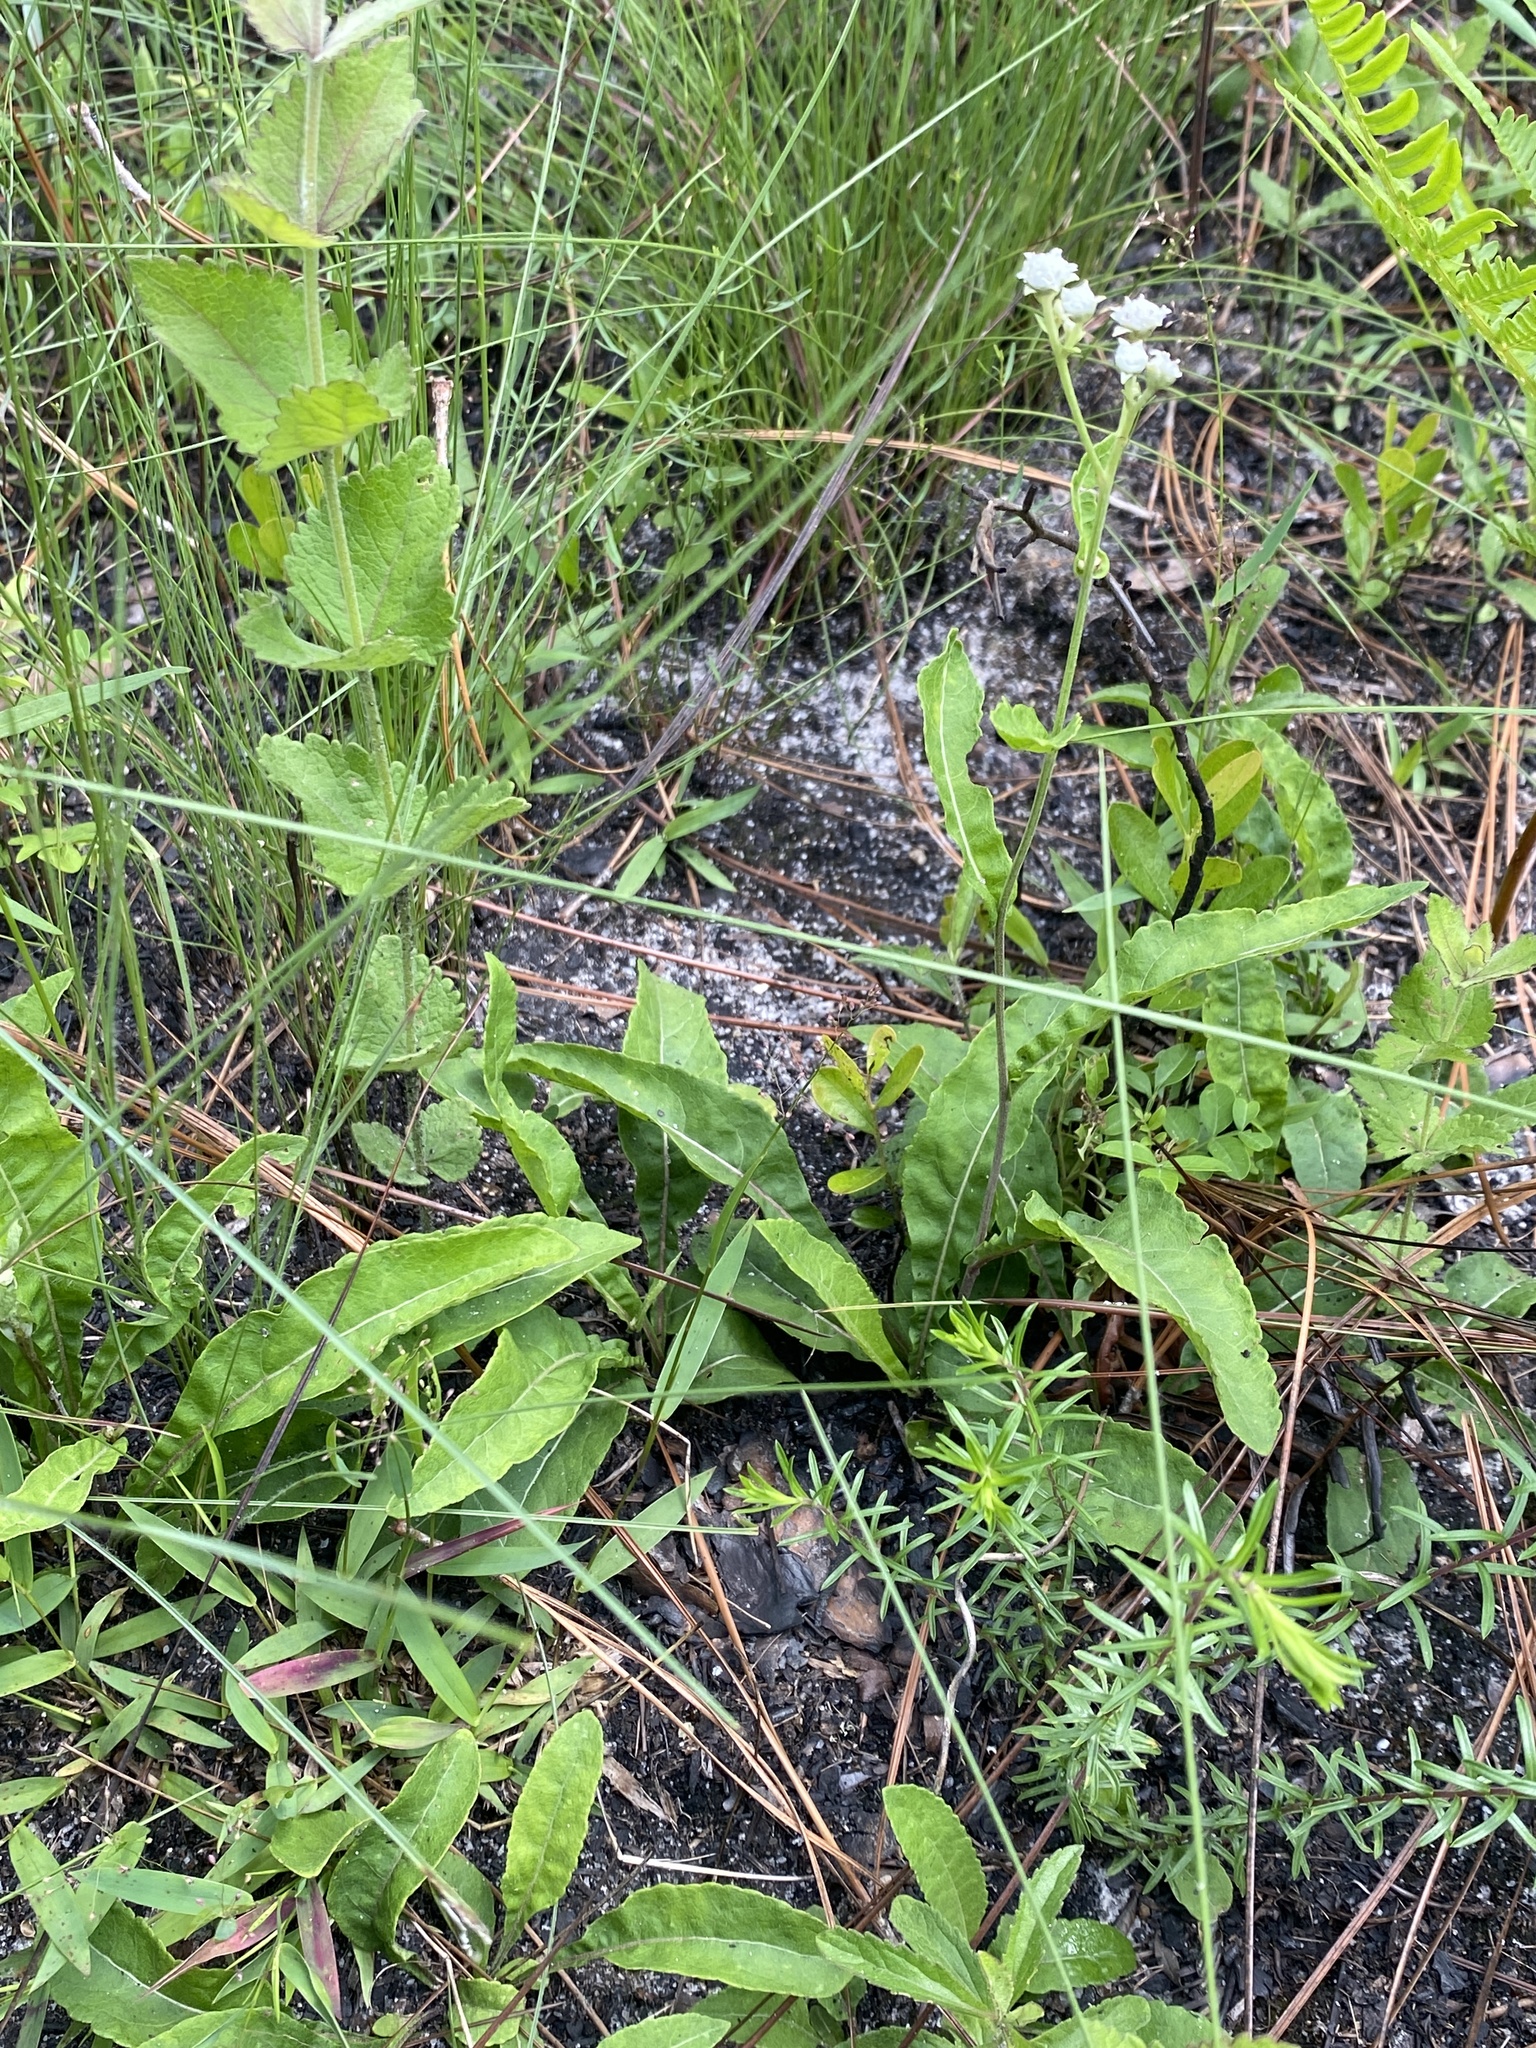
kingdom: Plantae
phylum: Tracheophyta
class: Magnoliopsida
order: Asterales
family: Asteraceae
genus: Parthenium
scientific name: Parthenium integrifolium
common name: American feverfew
